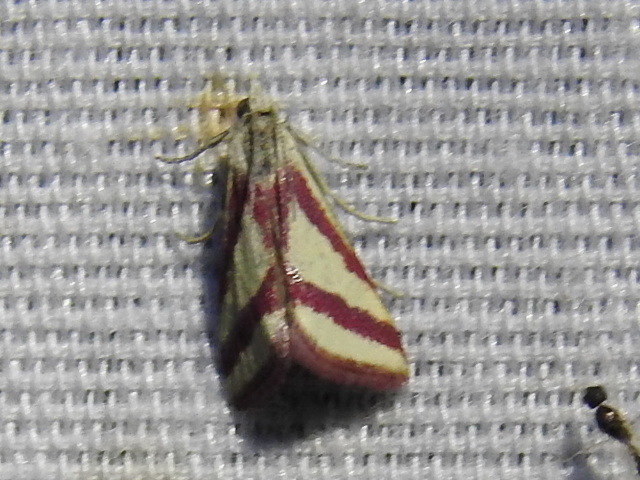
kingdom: Animalia
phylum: Arthropoda
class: Insecta
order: Lepidoptera
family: Crambidae
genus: Microtheoris
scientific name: Microtheoris vibicalis
